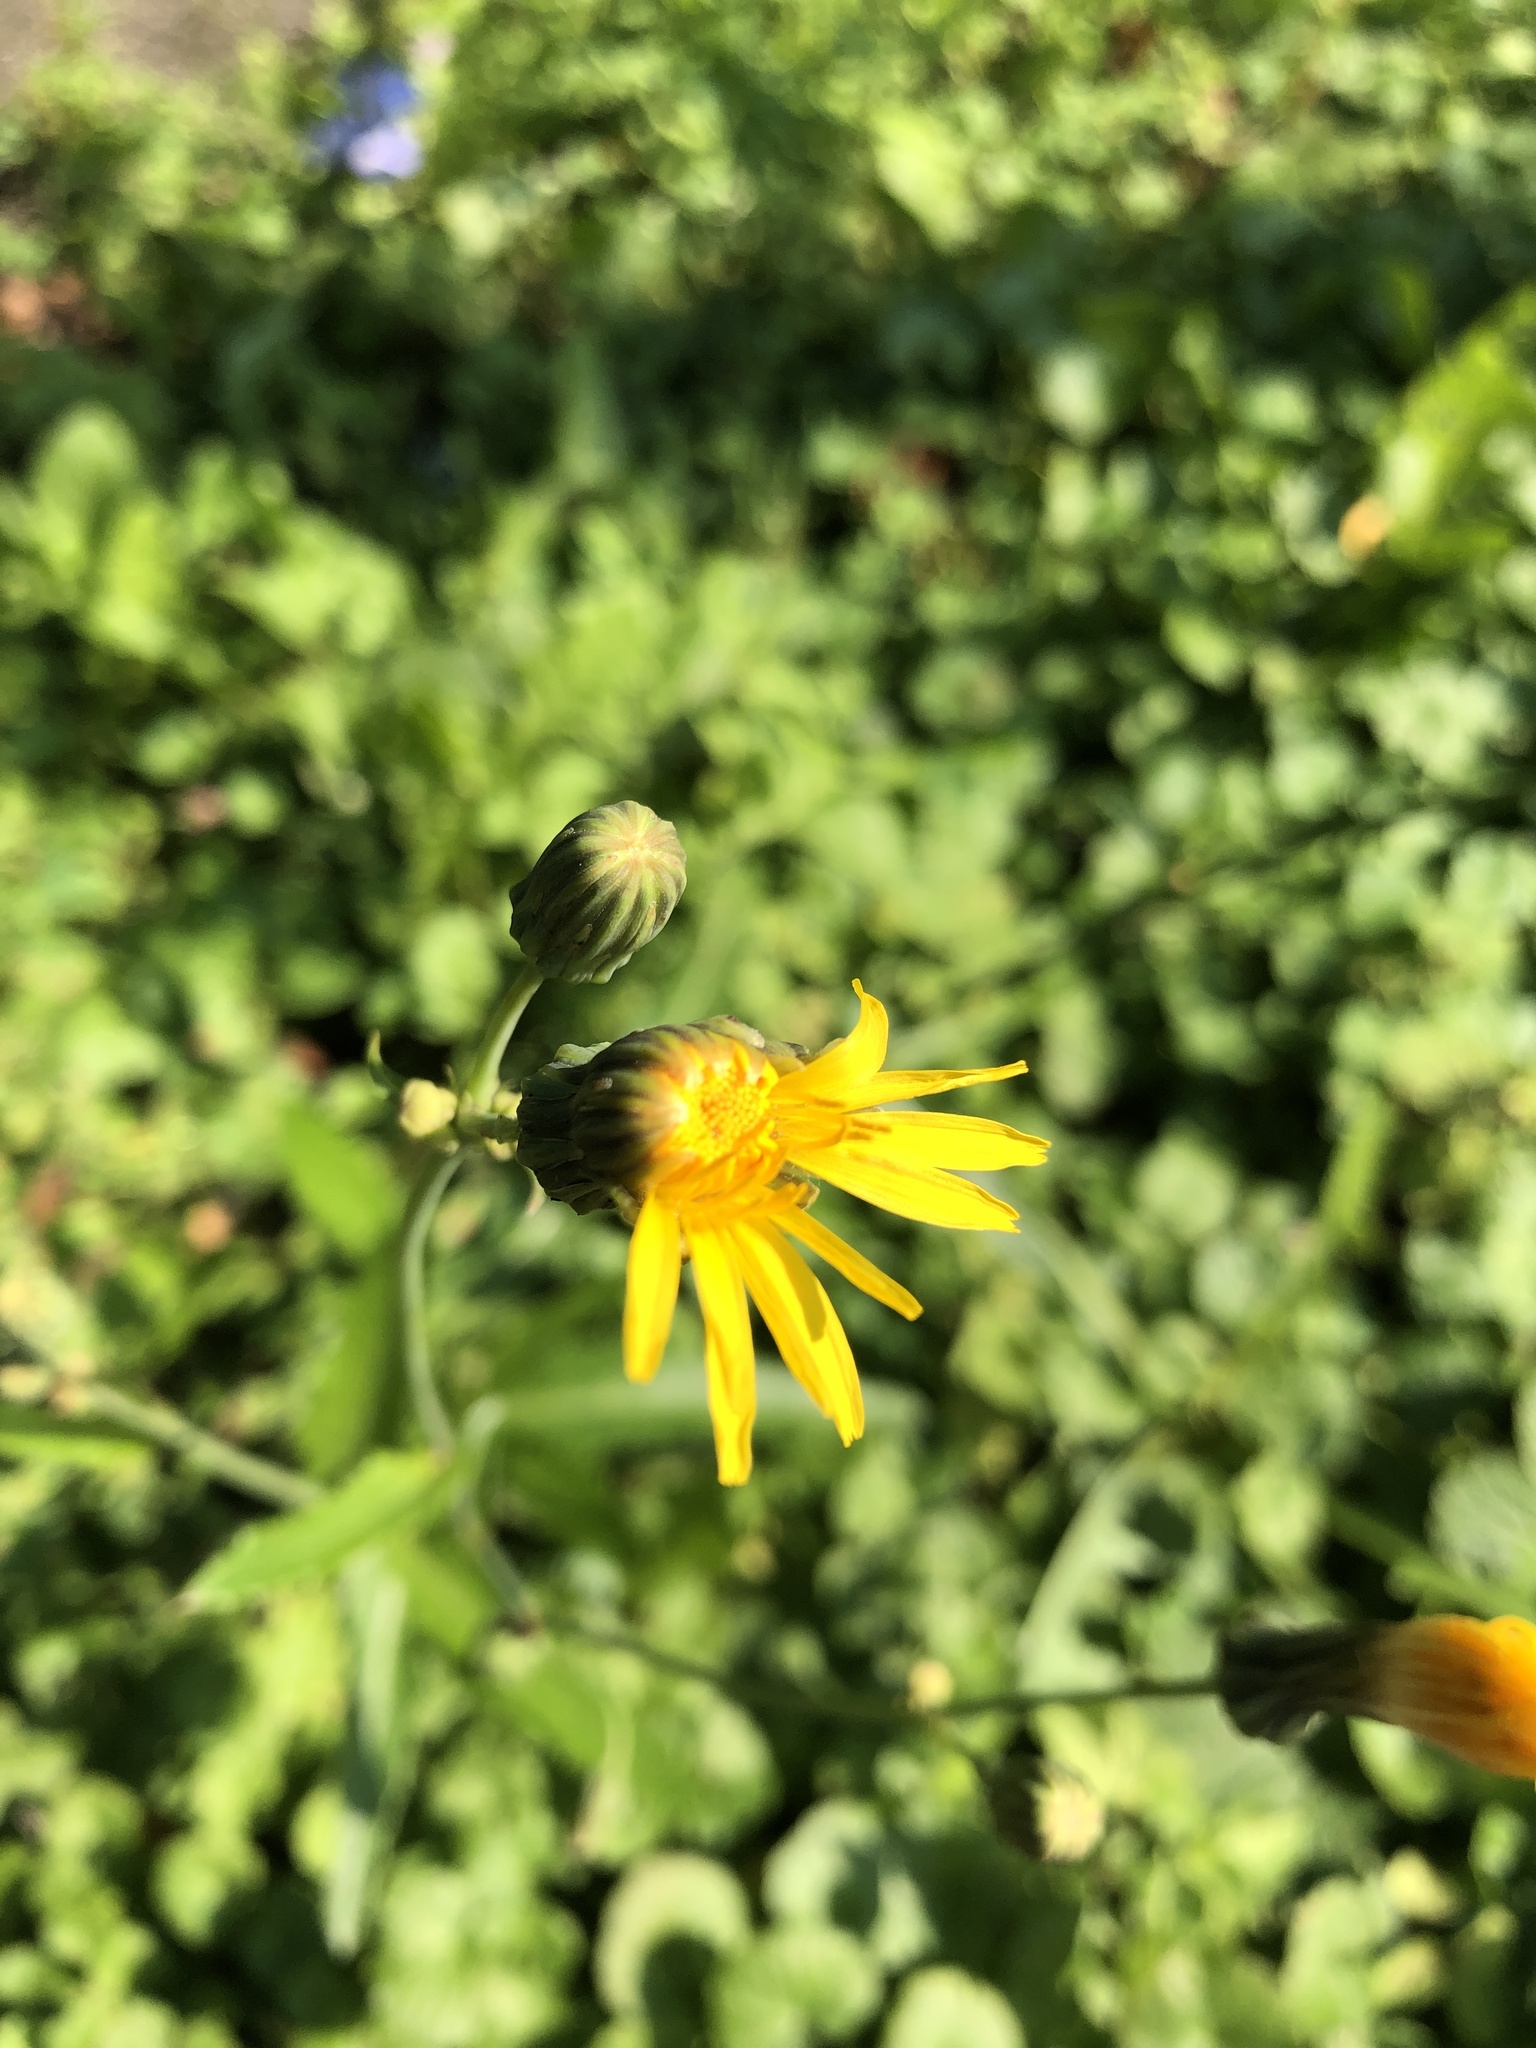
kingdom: Plantae
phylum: Tracheophyta
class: Magnoliopsida
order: Asterales
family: Asteraceae
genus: Sonchus
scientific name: Sonchus arvensis
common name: Perennial sow-thistle
